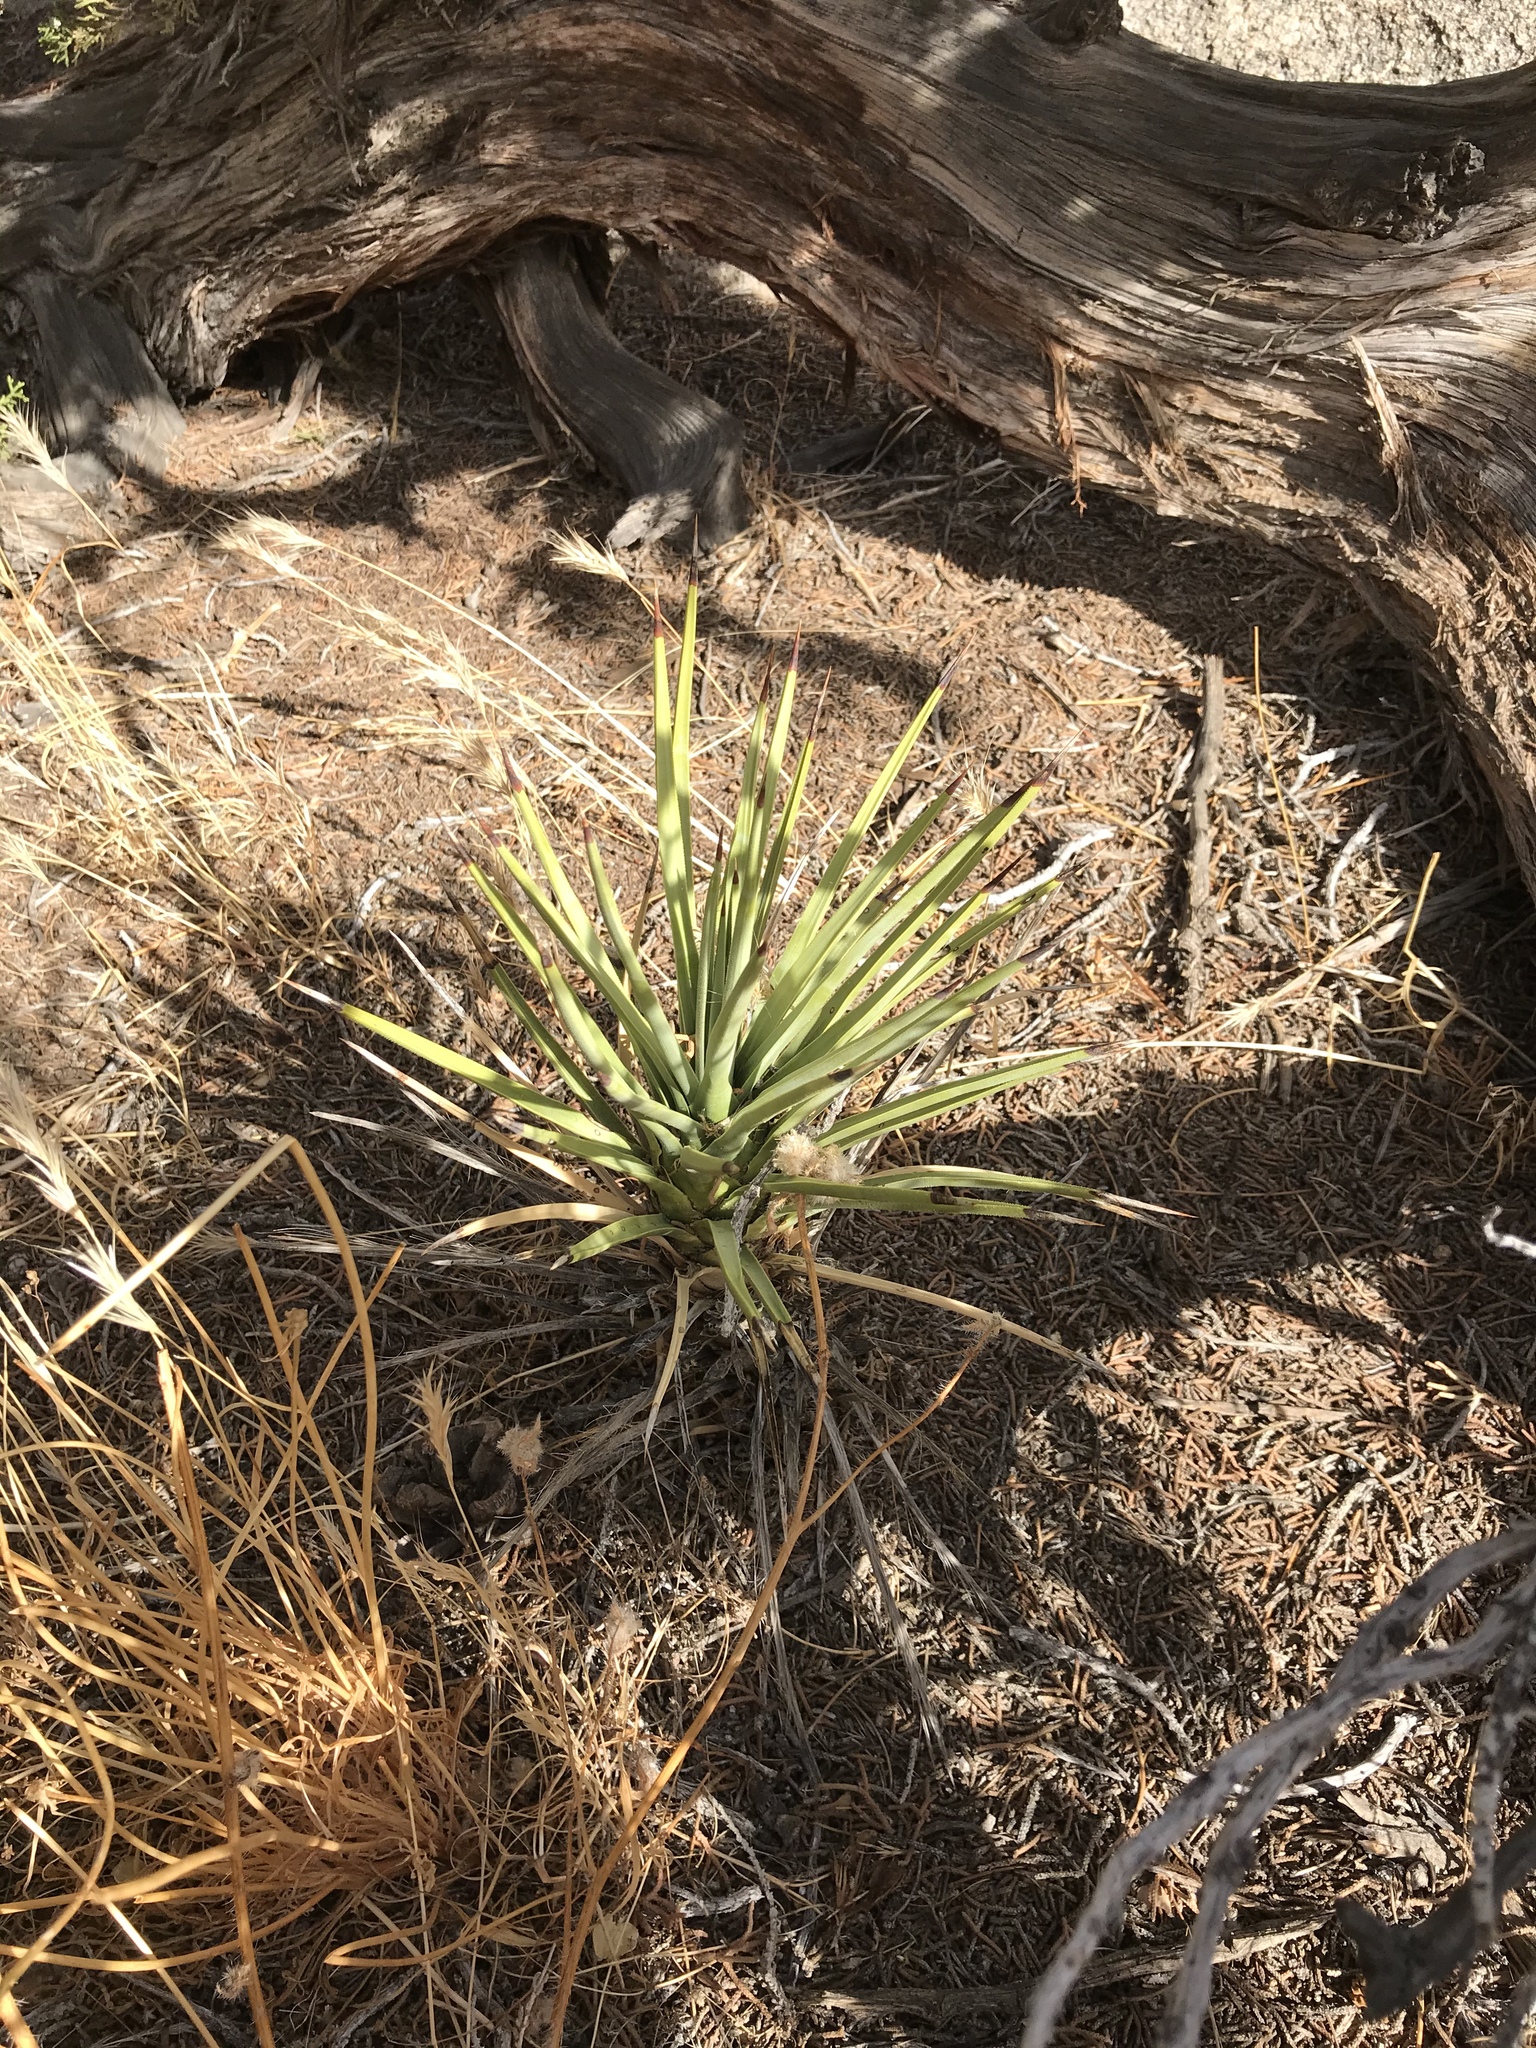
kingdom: Plantae
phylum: Tracheophyta
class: Liliopsida
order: Asparagales
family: Asparagaceae
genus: Yucca
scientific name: Yucca brevifolia
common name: Joshua tree
